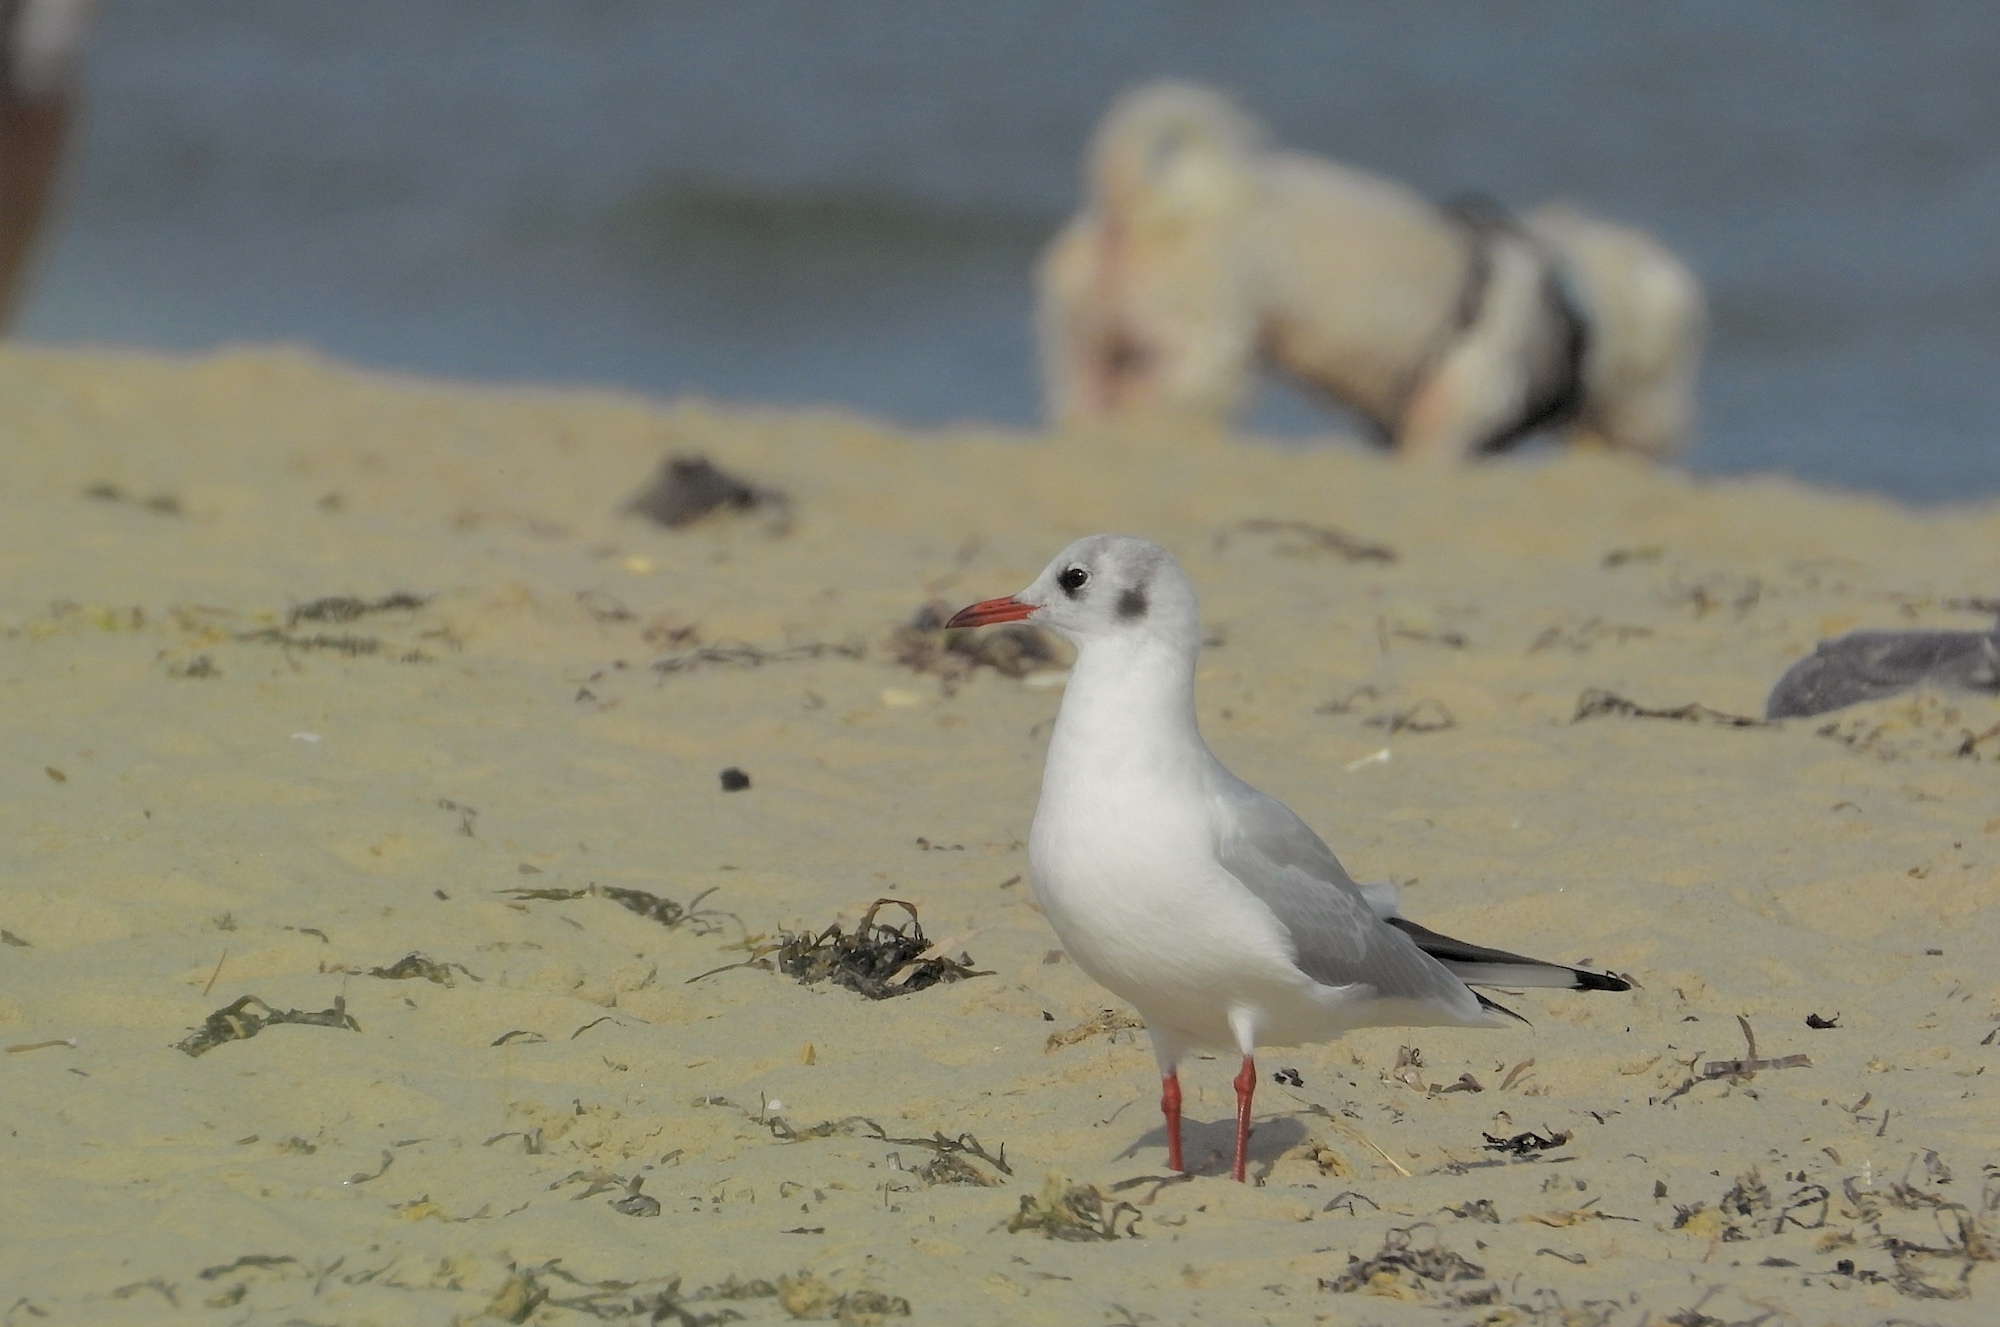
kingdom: Animalia
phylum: Chordata
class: Aves
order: Charadriiformes
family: Laridae
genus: Chroicocephalus
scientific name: Chroicocephalus ridibundus
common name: Black-headed gull
